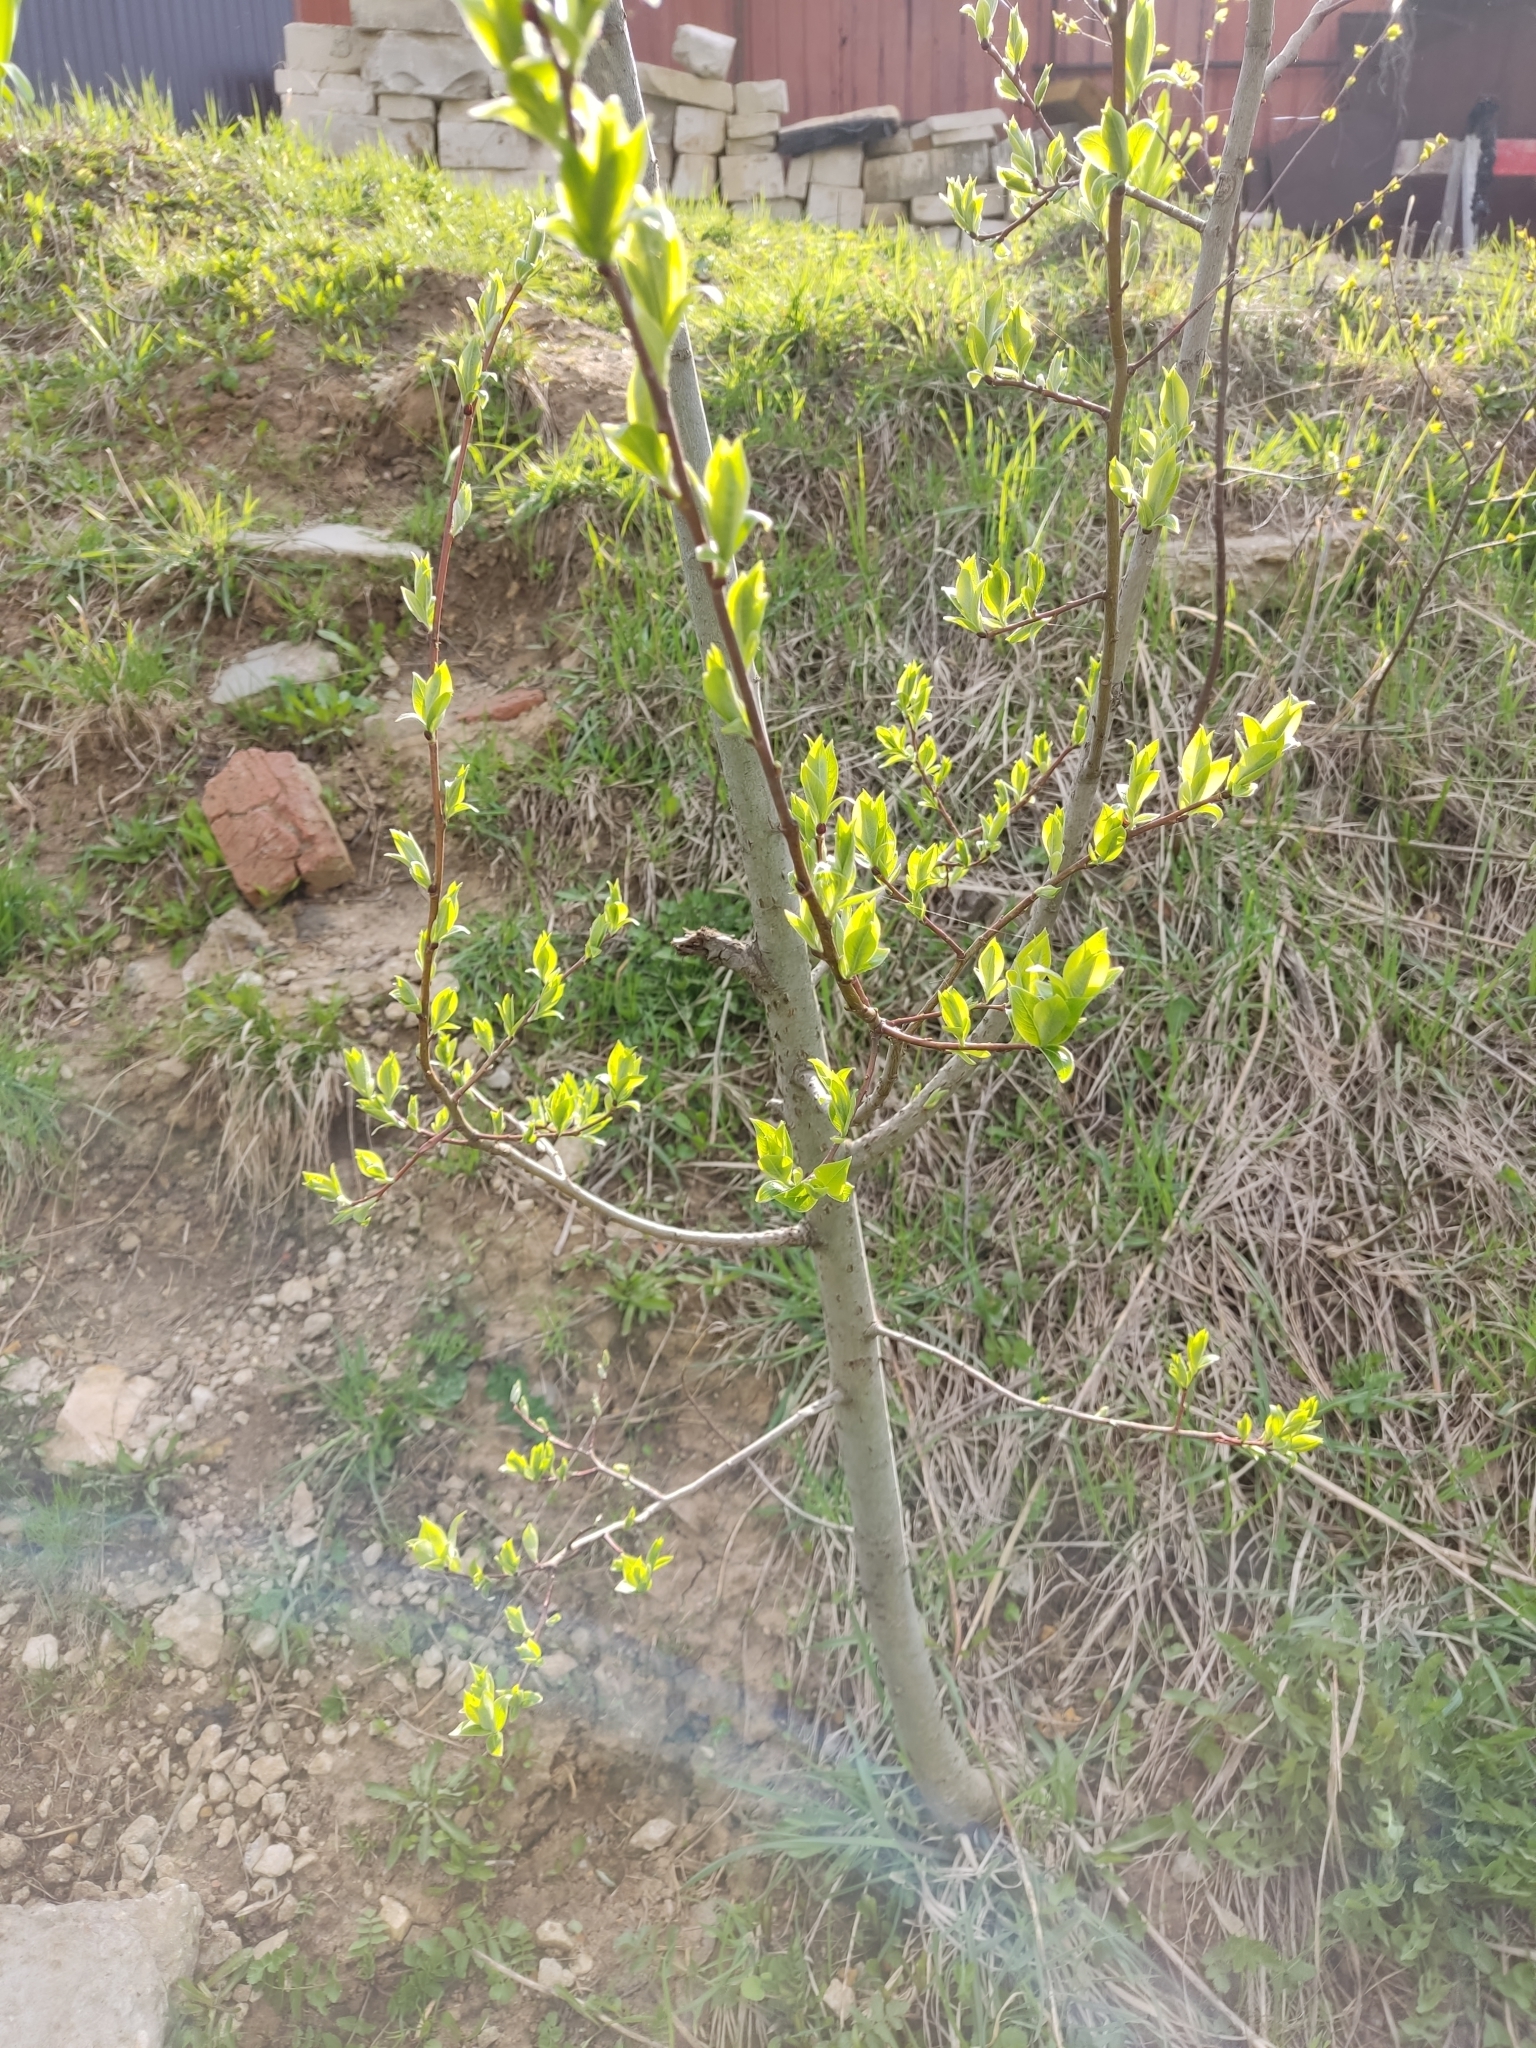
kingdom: Plantae
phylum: Tracheophyta
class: Magnoliopsida
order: Malpighiales
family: Salicaceae
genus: Salix
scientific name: Salix caprea
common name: Goat willow
